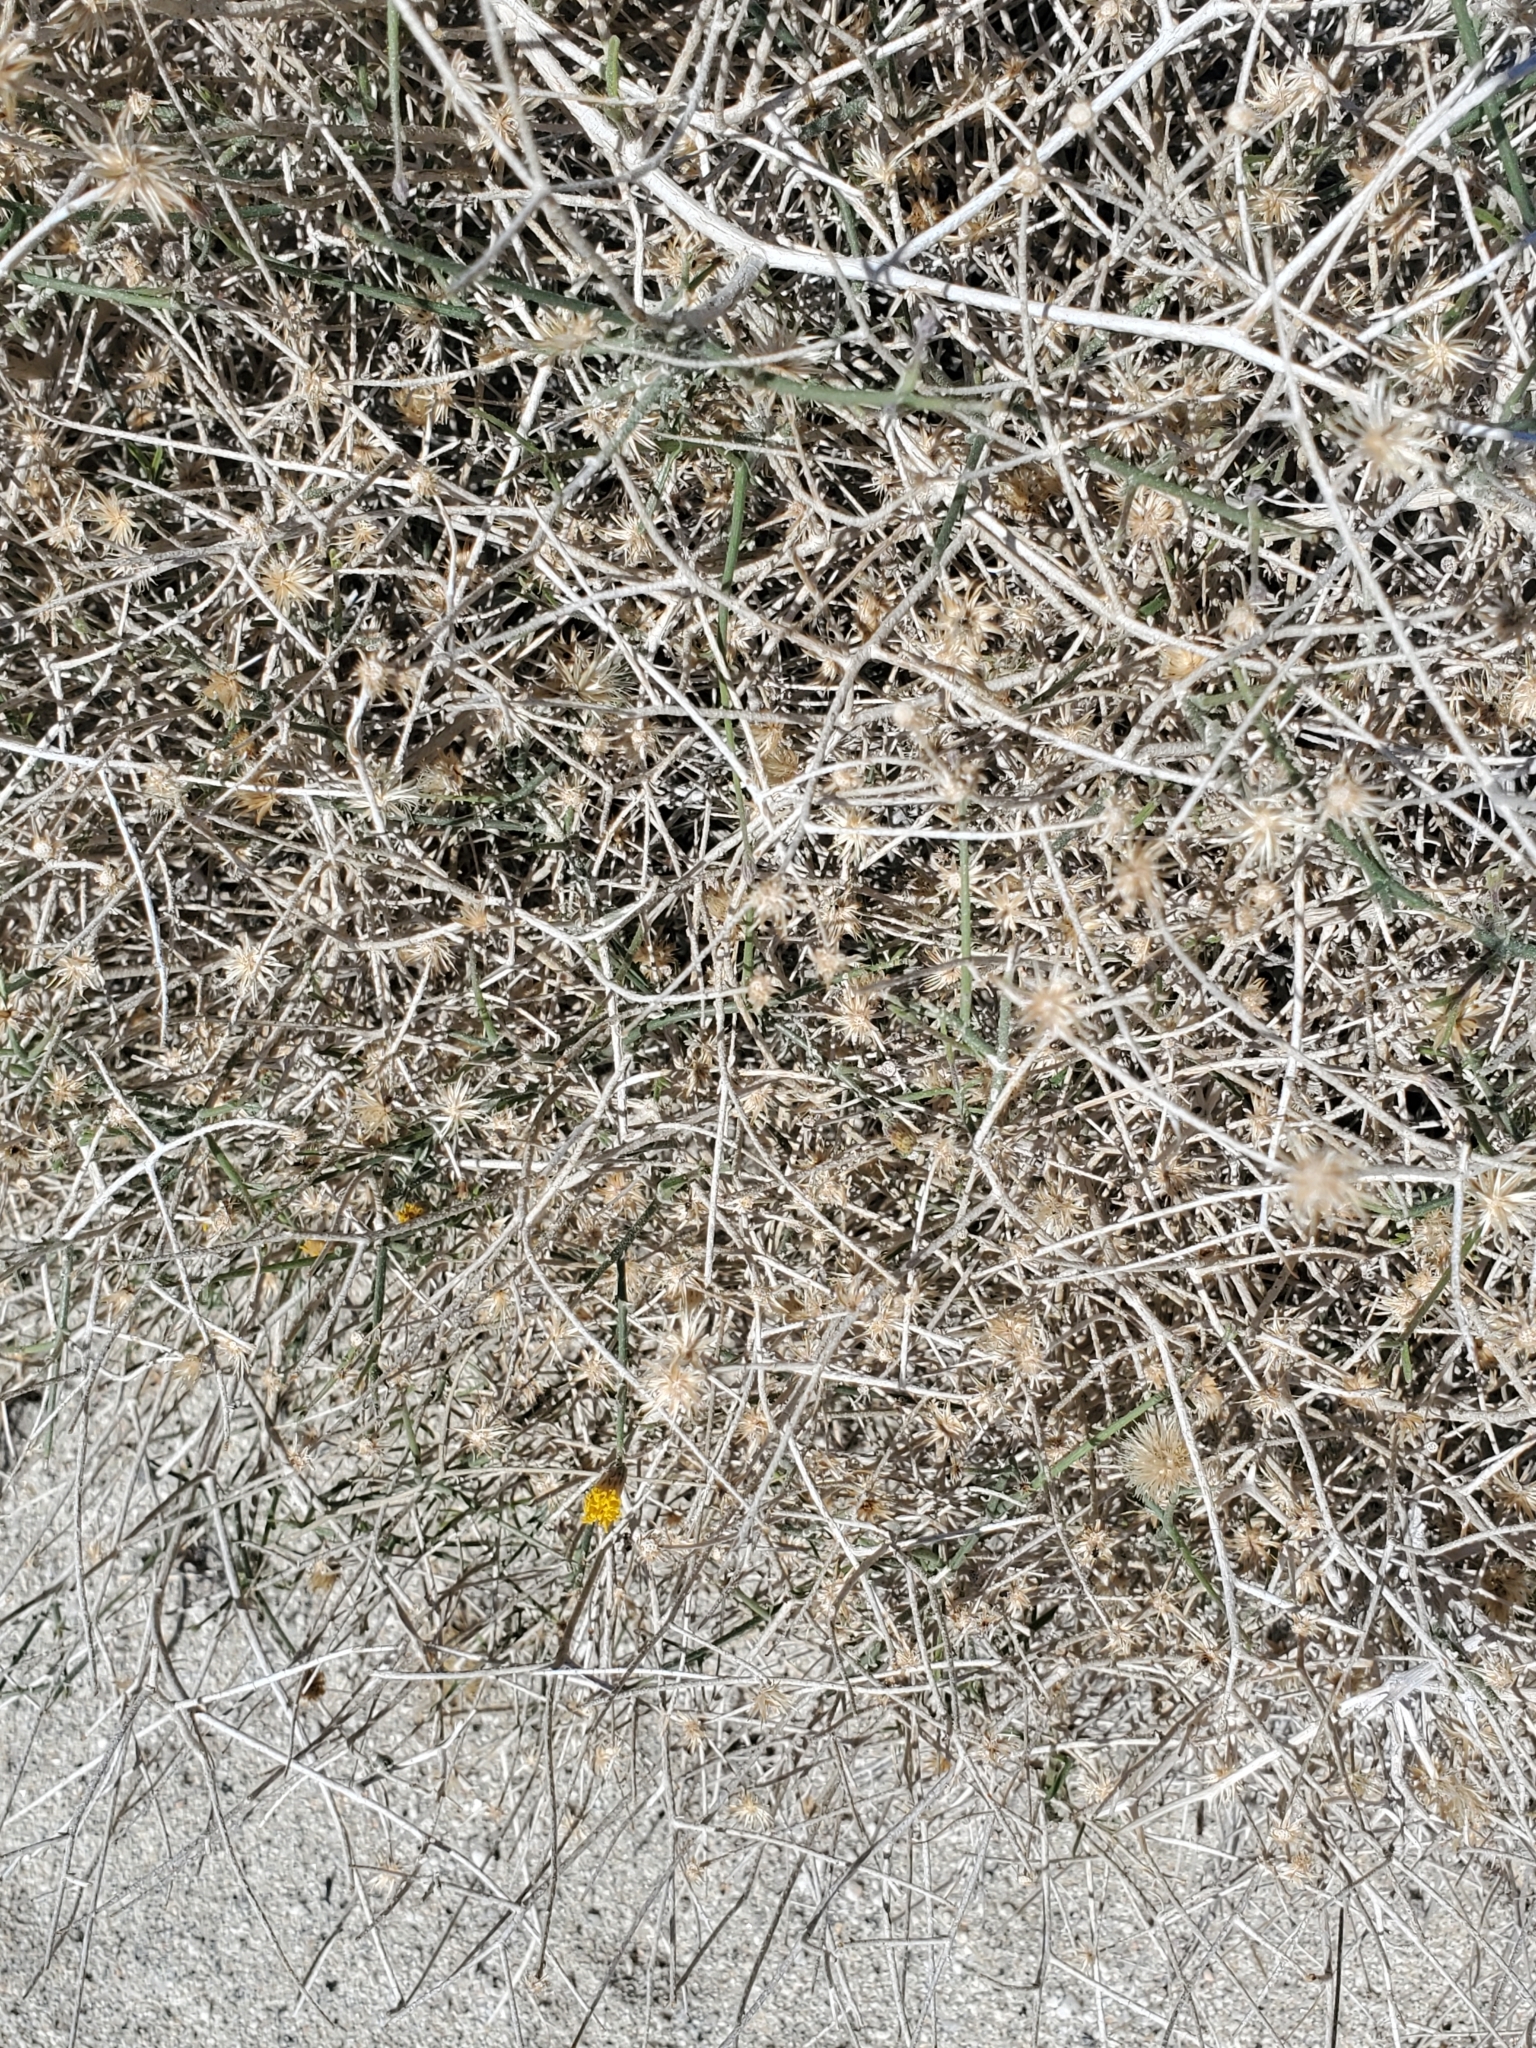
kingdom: Plantae
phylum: Tracheophyta
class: Magnoliopsida
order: Asterales
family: Asteraceae
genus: Bebbia
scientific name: Bebbia juncea
